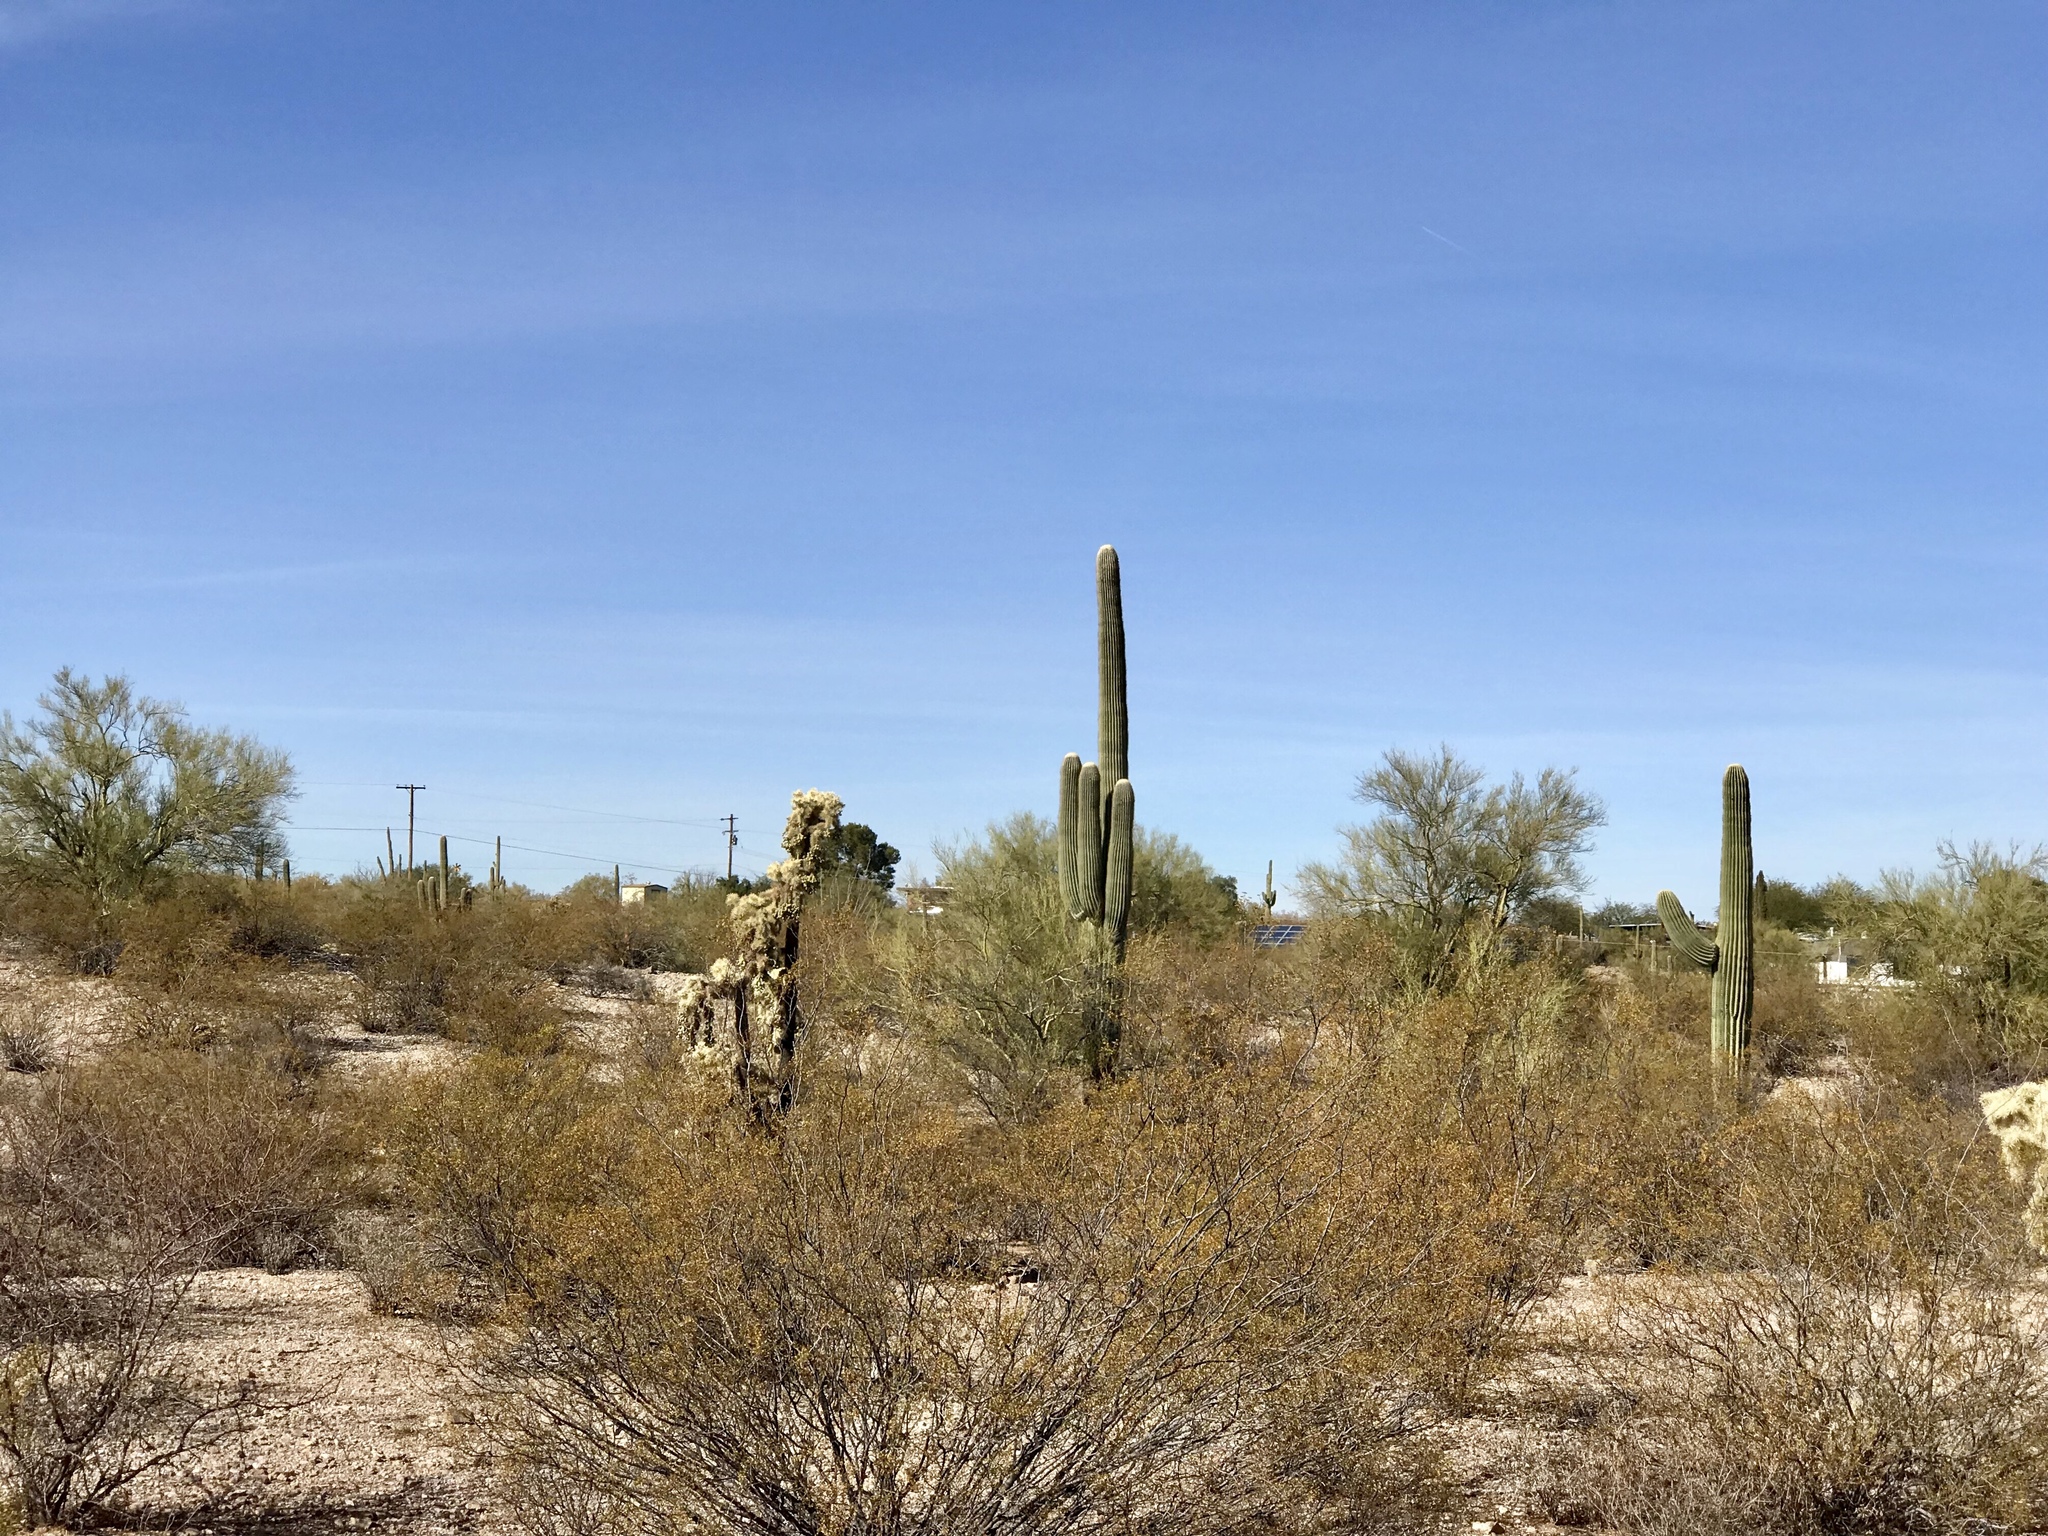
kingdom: Plantae
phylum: Tracheophyta
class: Magnoliopsida
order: Zygophyllales
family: Zygophyllaceae
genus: Larrea
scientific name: Larrea tridentata
